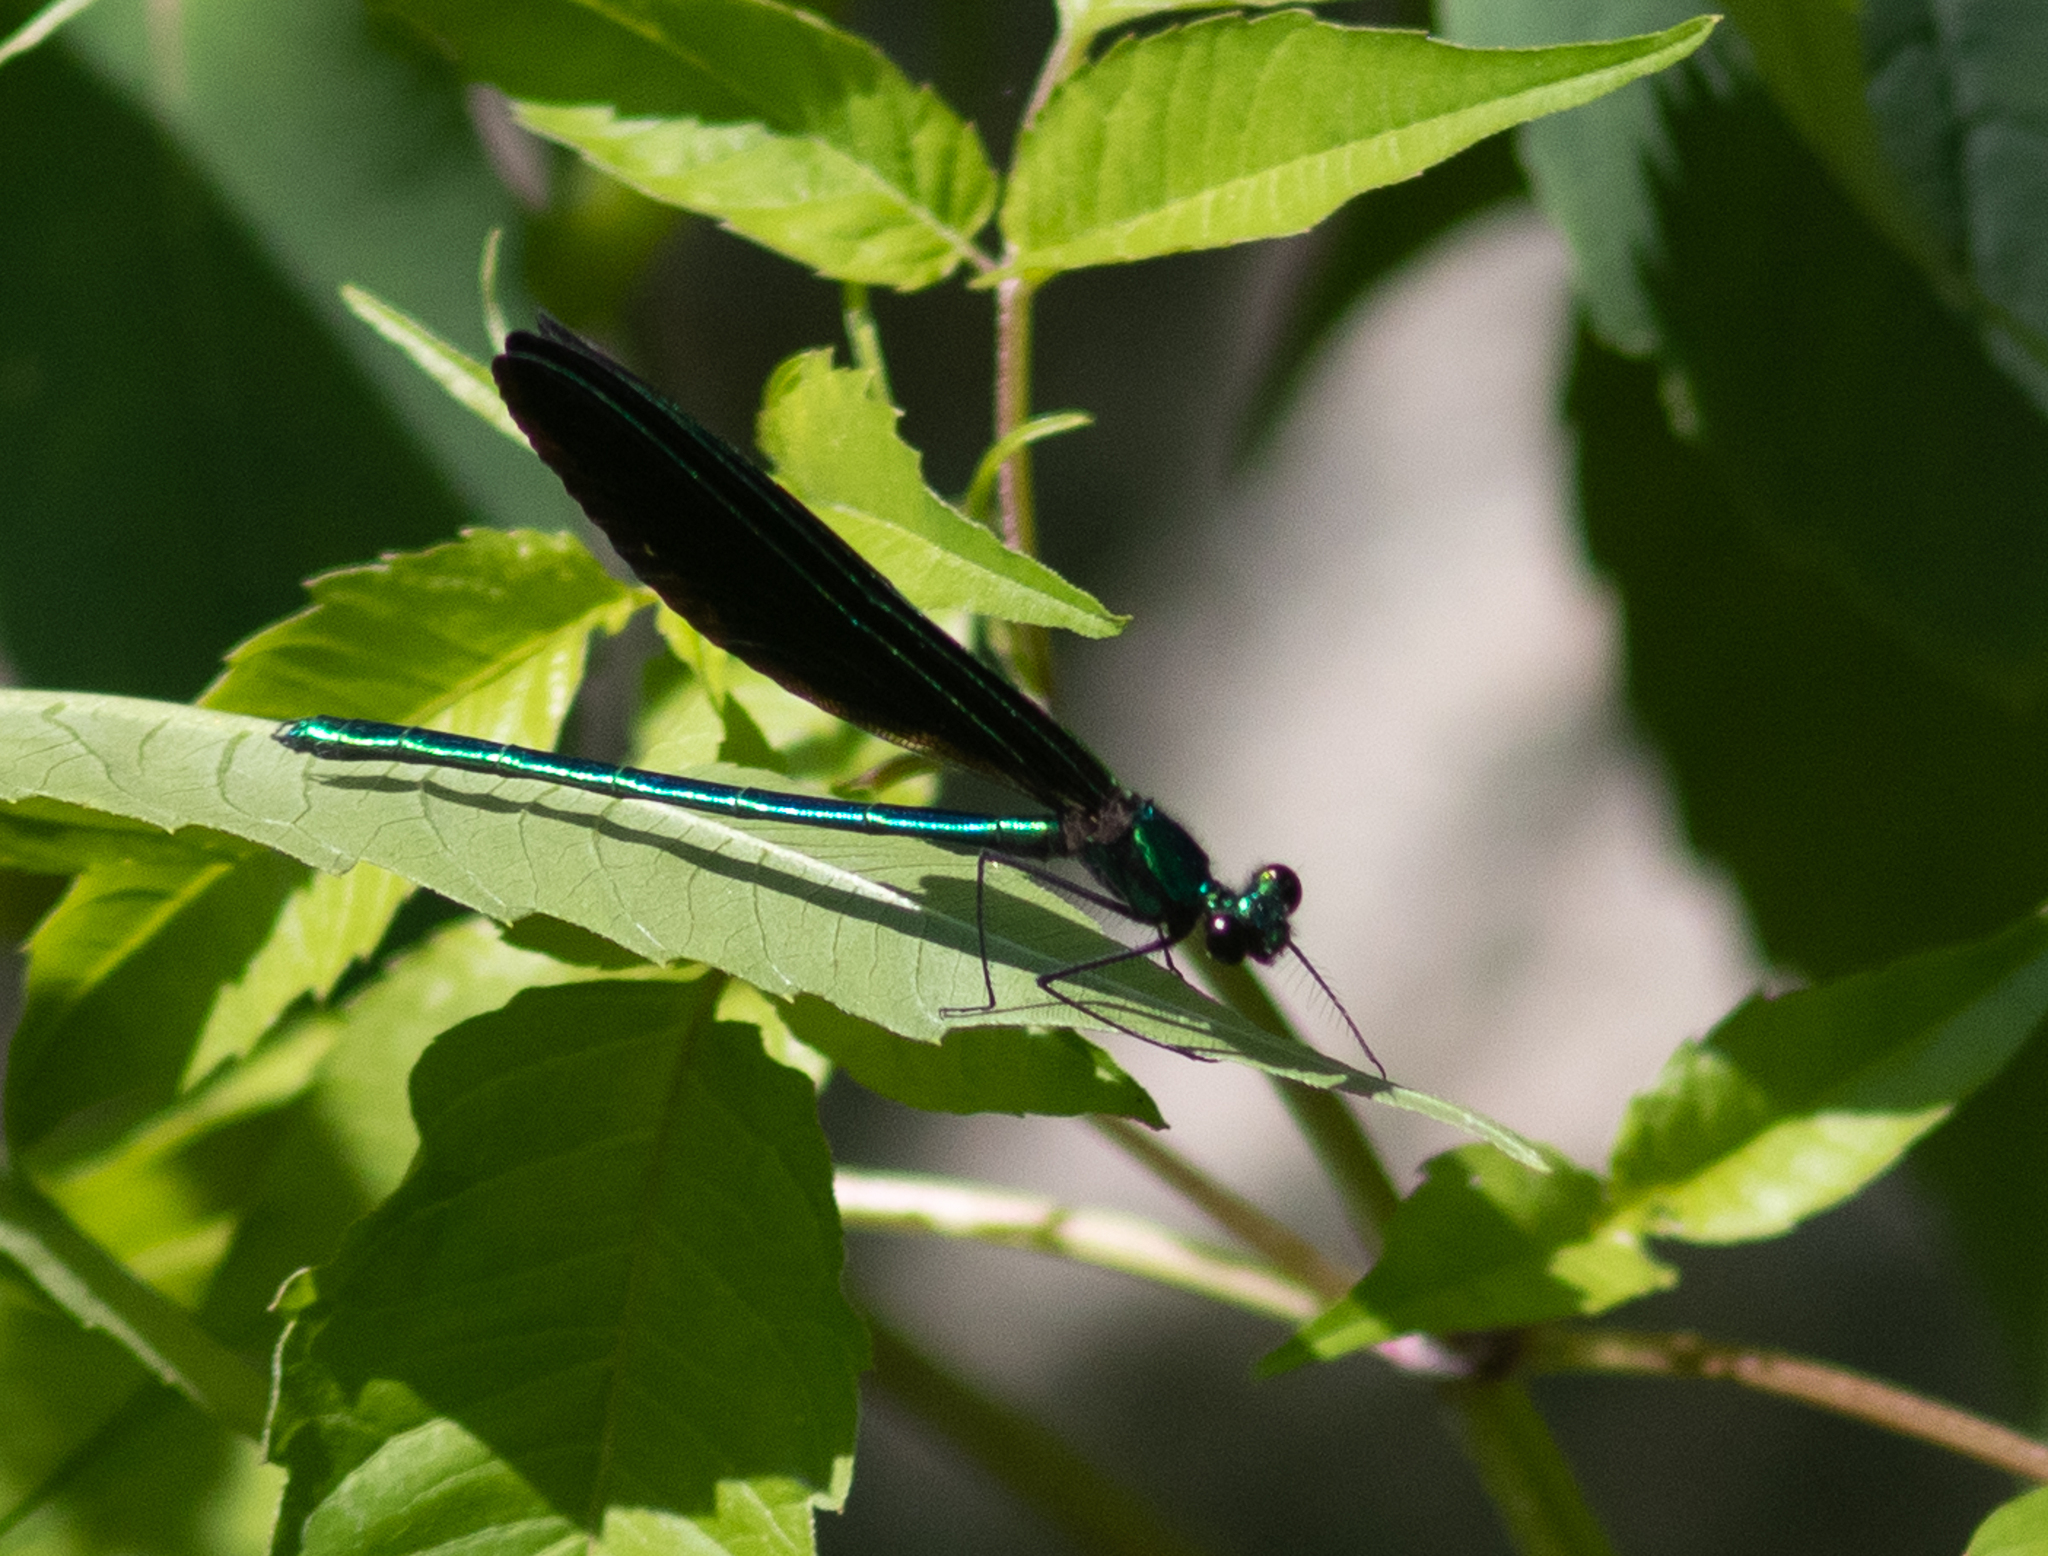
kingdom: Animalia
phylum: Arthropoda
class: Insecta
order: Odonata
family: Calopterygidae
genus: Calopteryx
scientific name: Calopteryx maculata
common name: Ebony jewelwing
